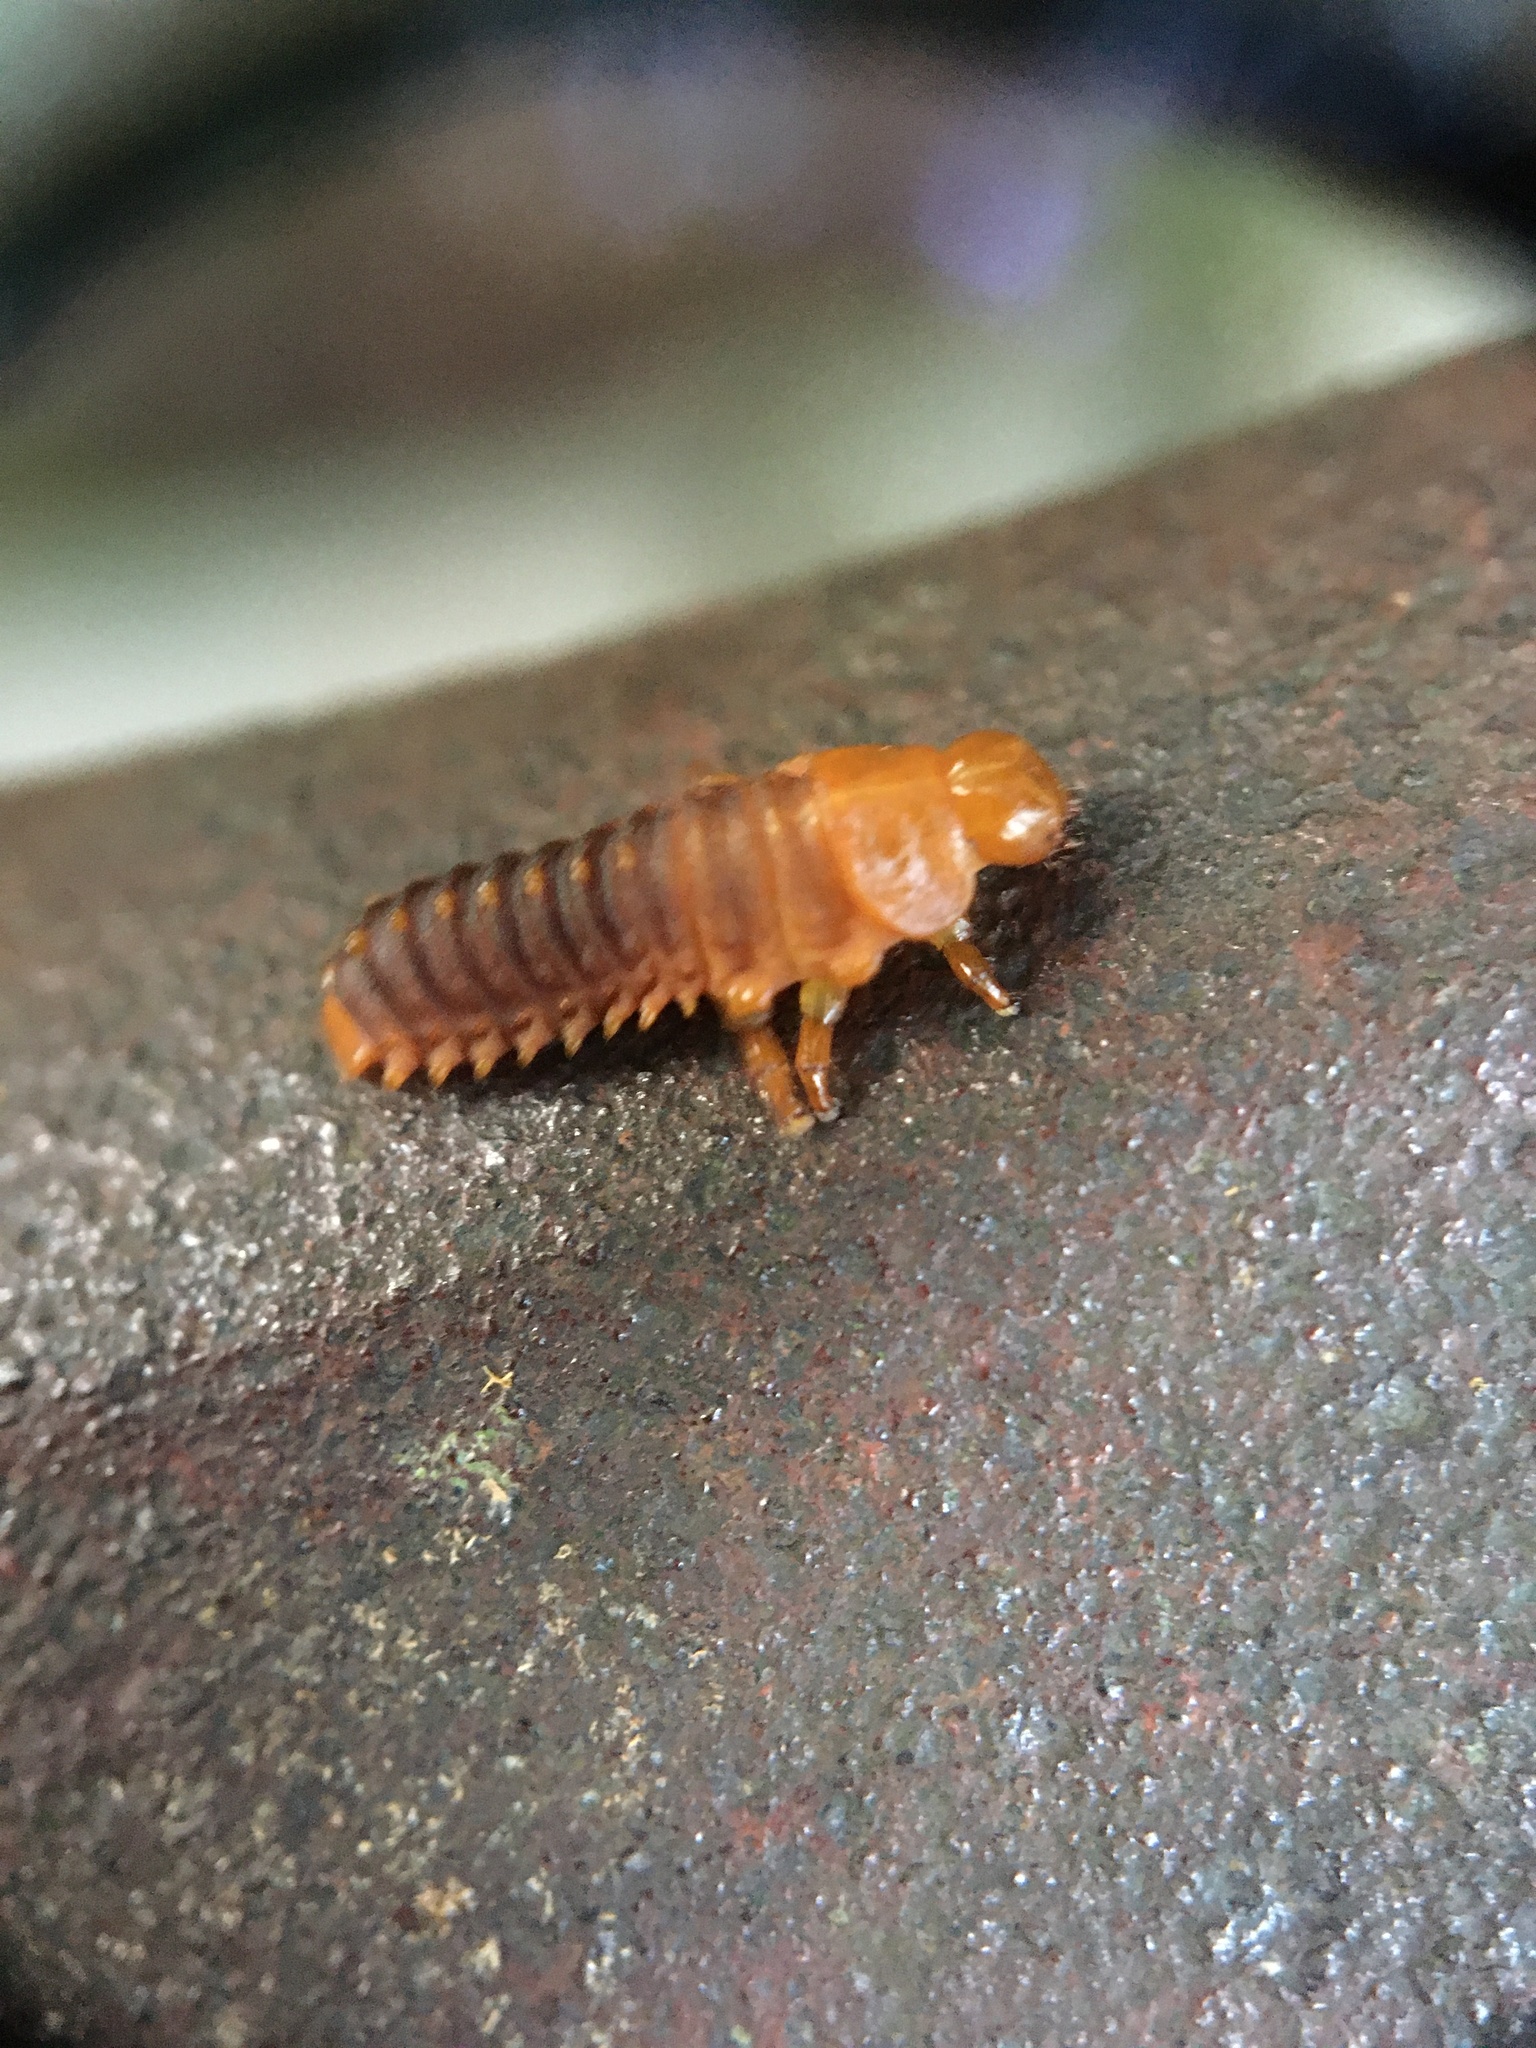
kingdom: Animalia
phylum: Arthropoda
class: Insecta
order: Coleoptera
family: Chrysomelidae
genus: Monocesta
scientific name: Monocesta coryli
